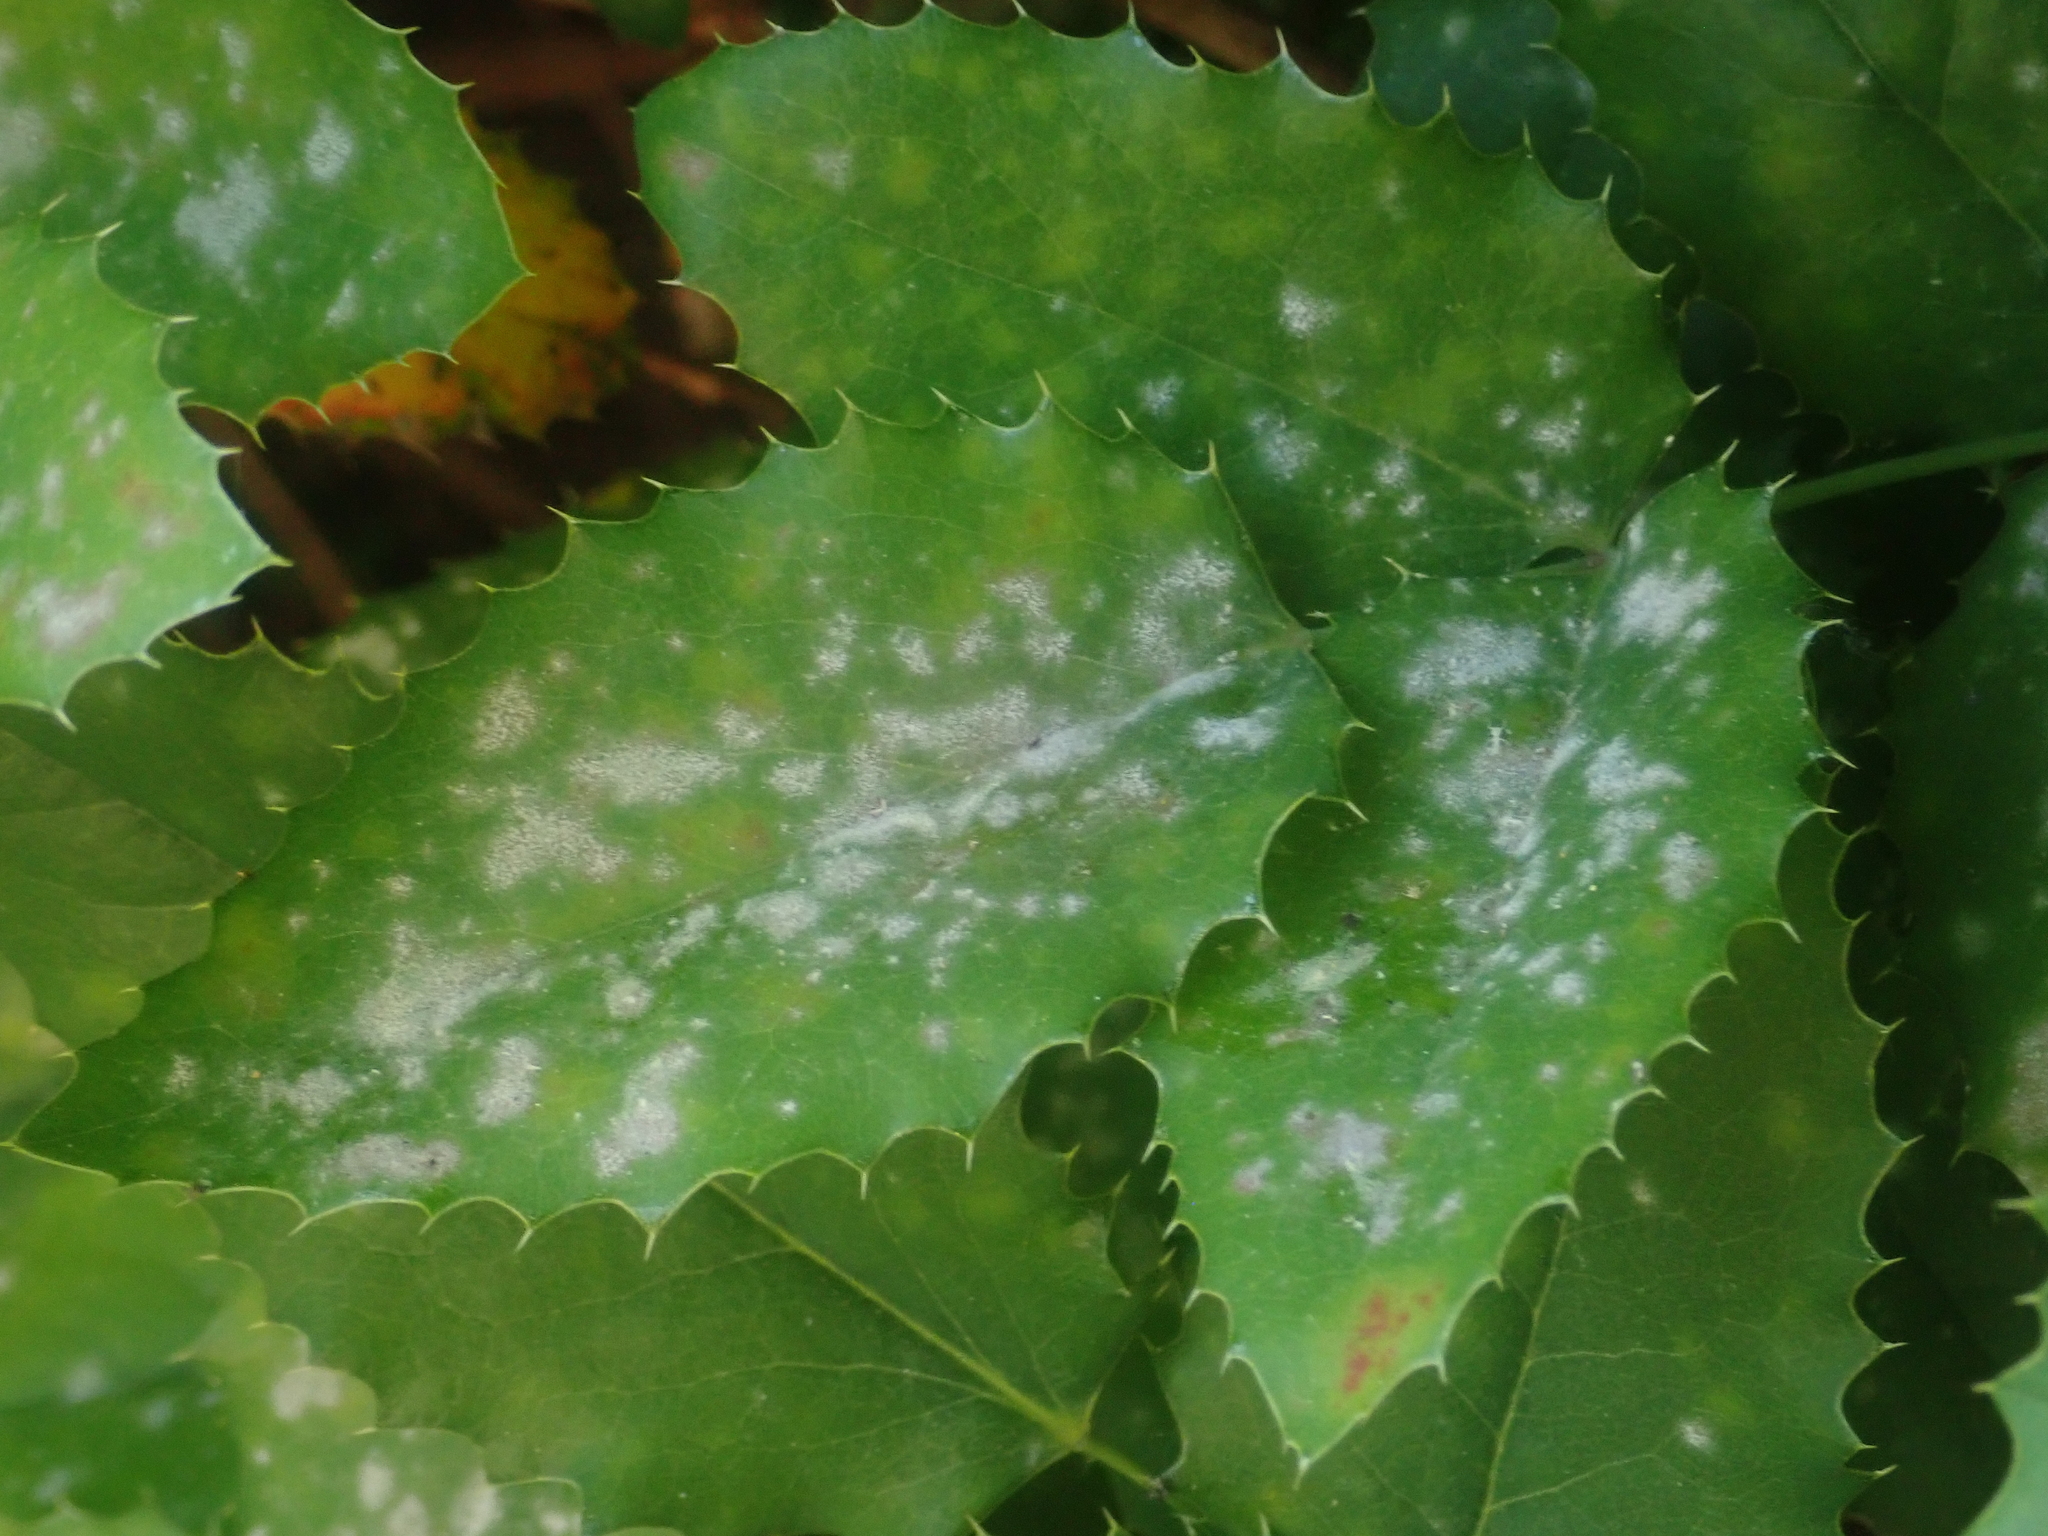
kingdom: Fungi
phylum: Ascomycota
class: Leotiomycetes
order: Helotiales
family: Erysiphaceae
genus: Erysiphe
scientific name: Erysiphe berberidis
